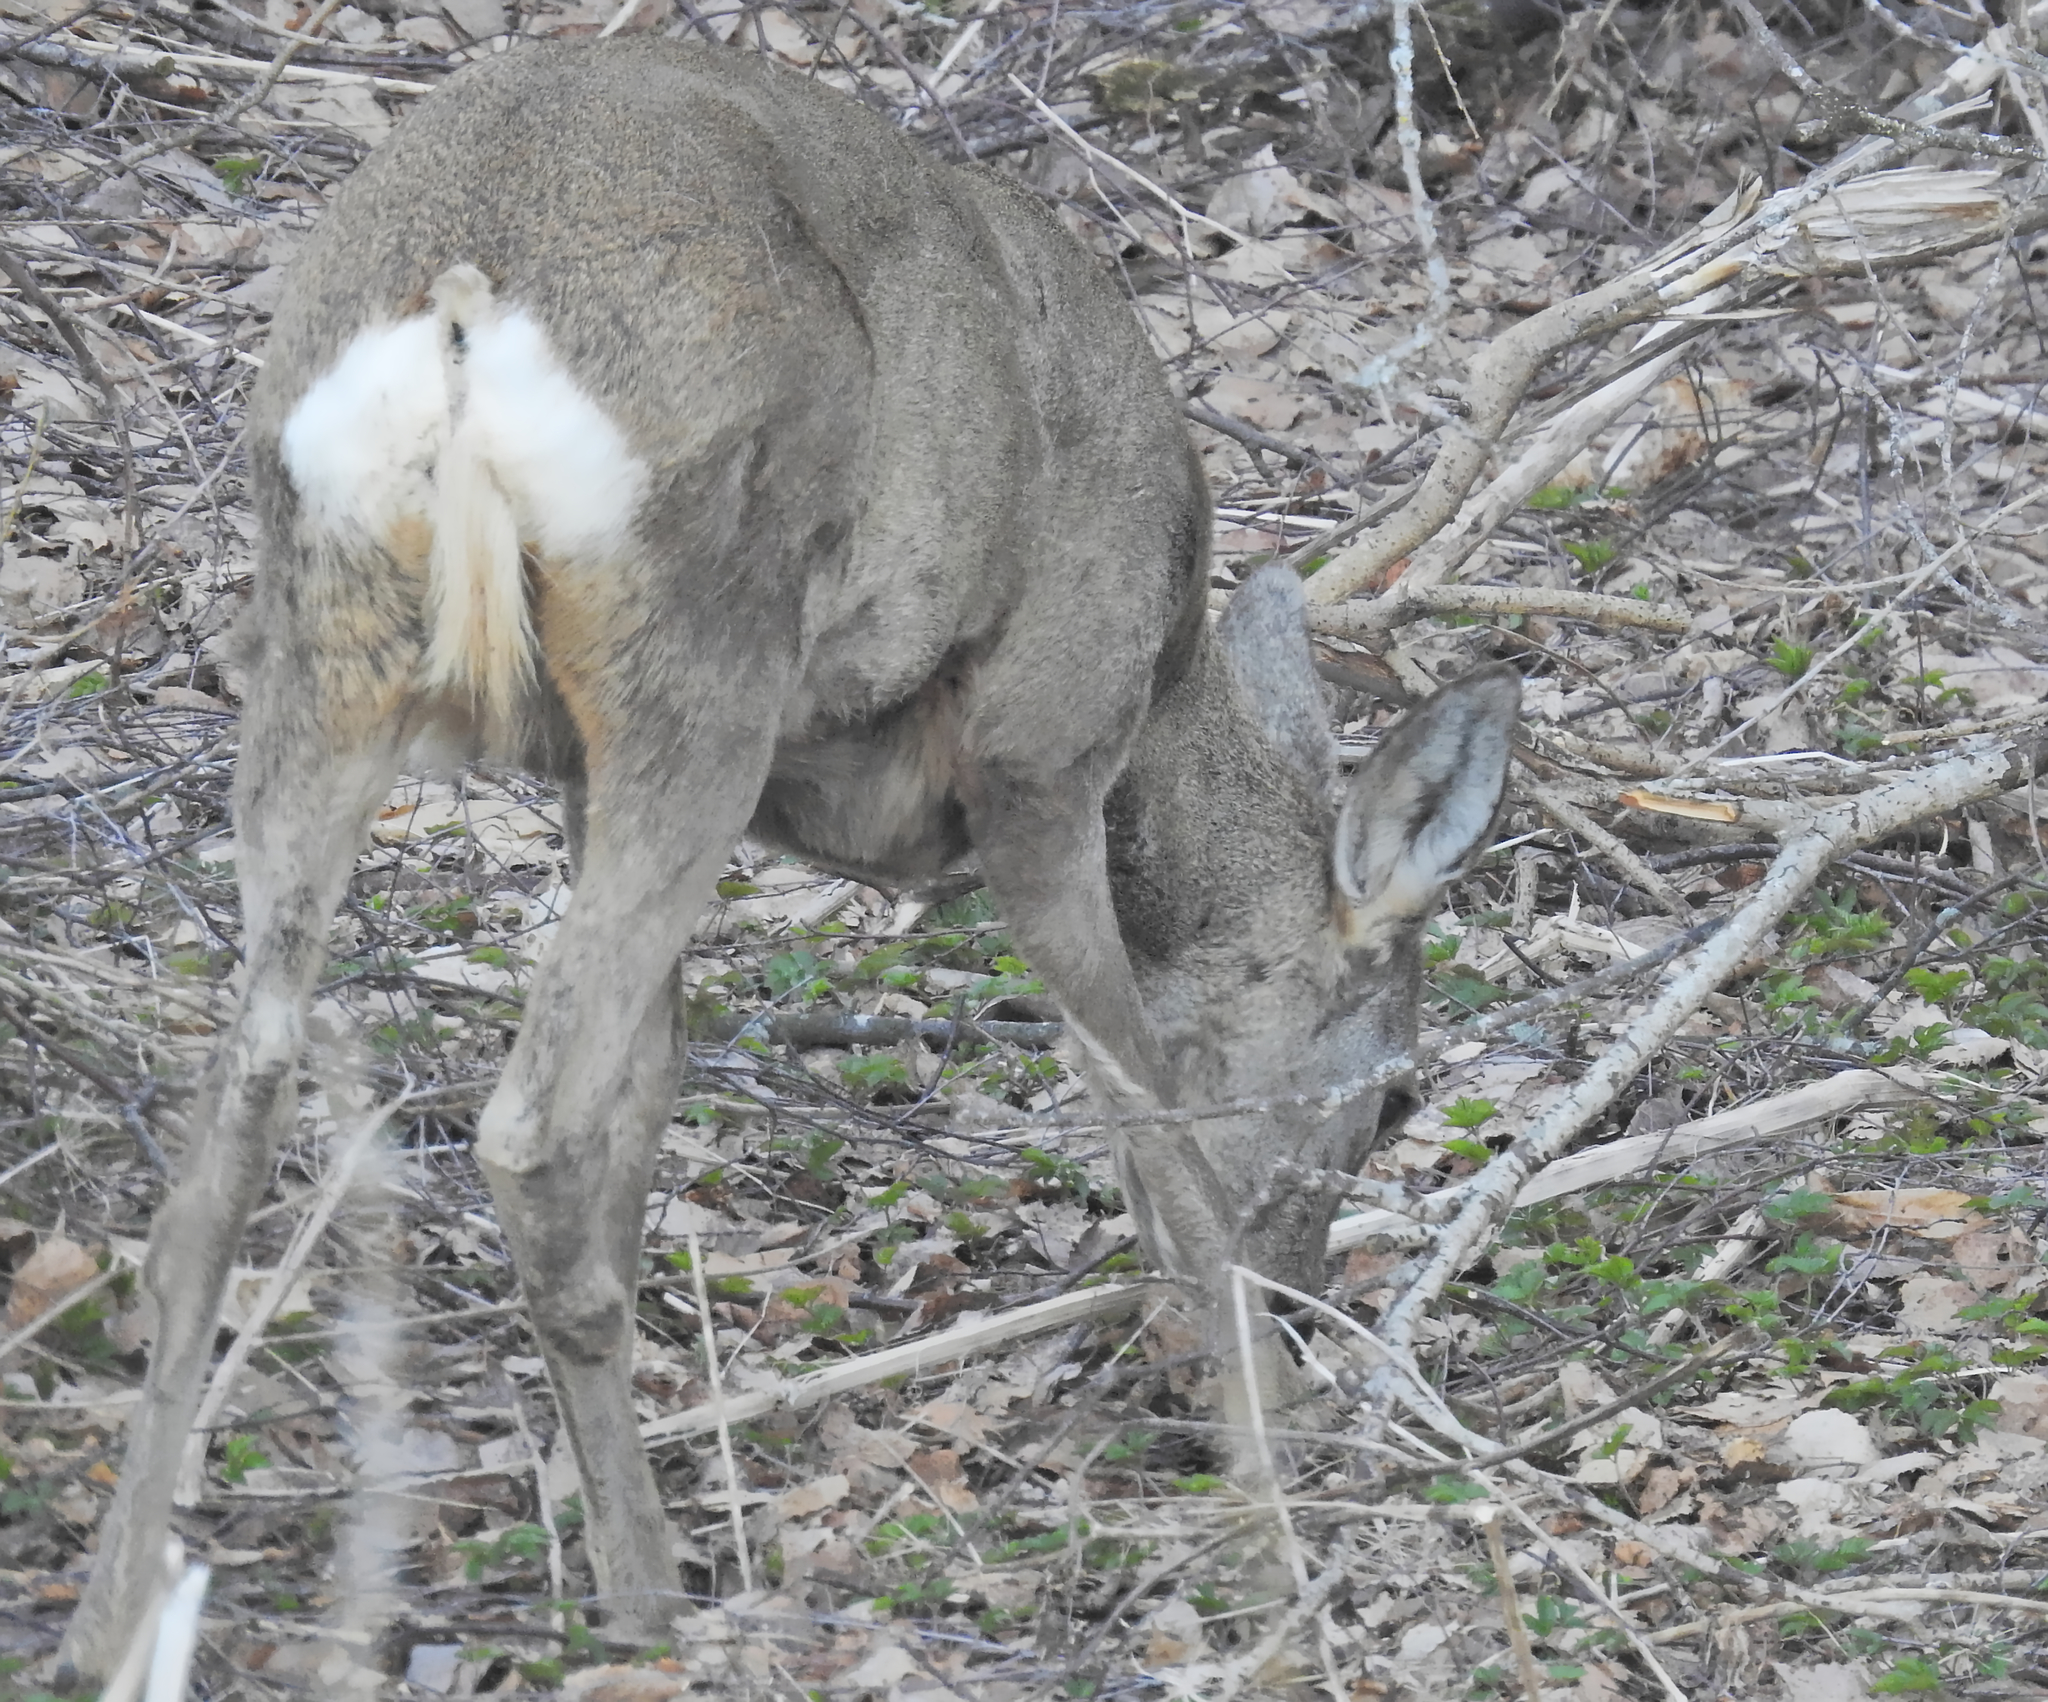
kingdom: Animalia
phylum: Chordata
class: Mammalia
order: Artiodactyla
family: Cervidae
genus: Capreolus
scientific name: Capreolus capreolus
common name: Western roe deer
